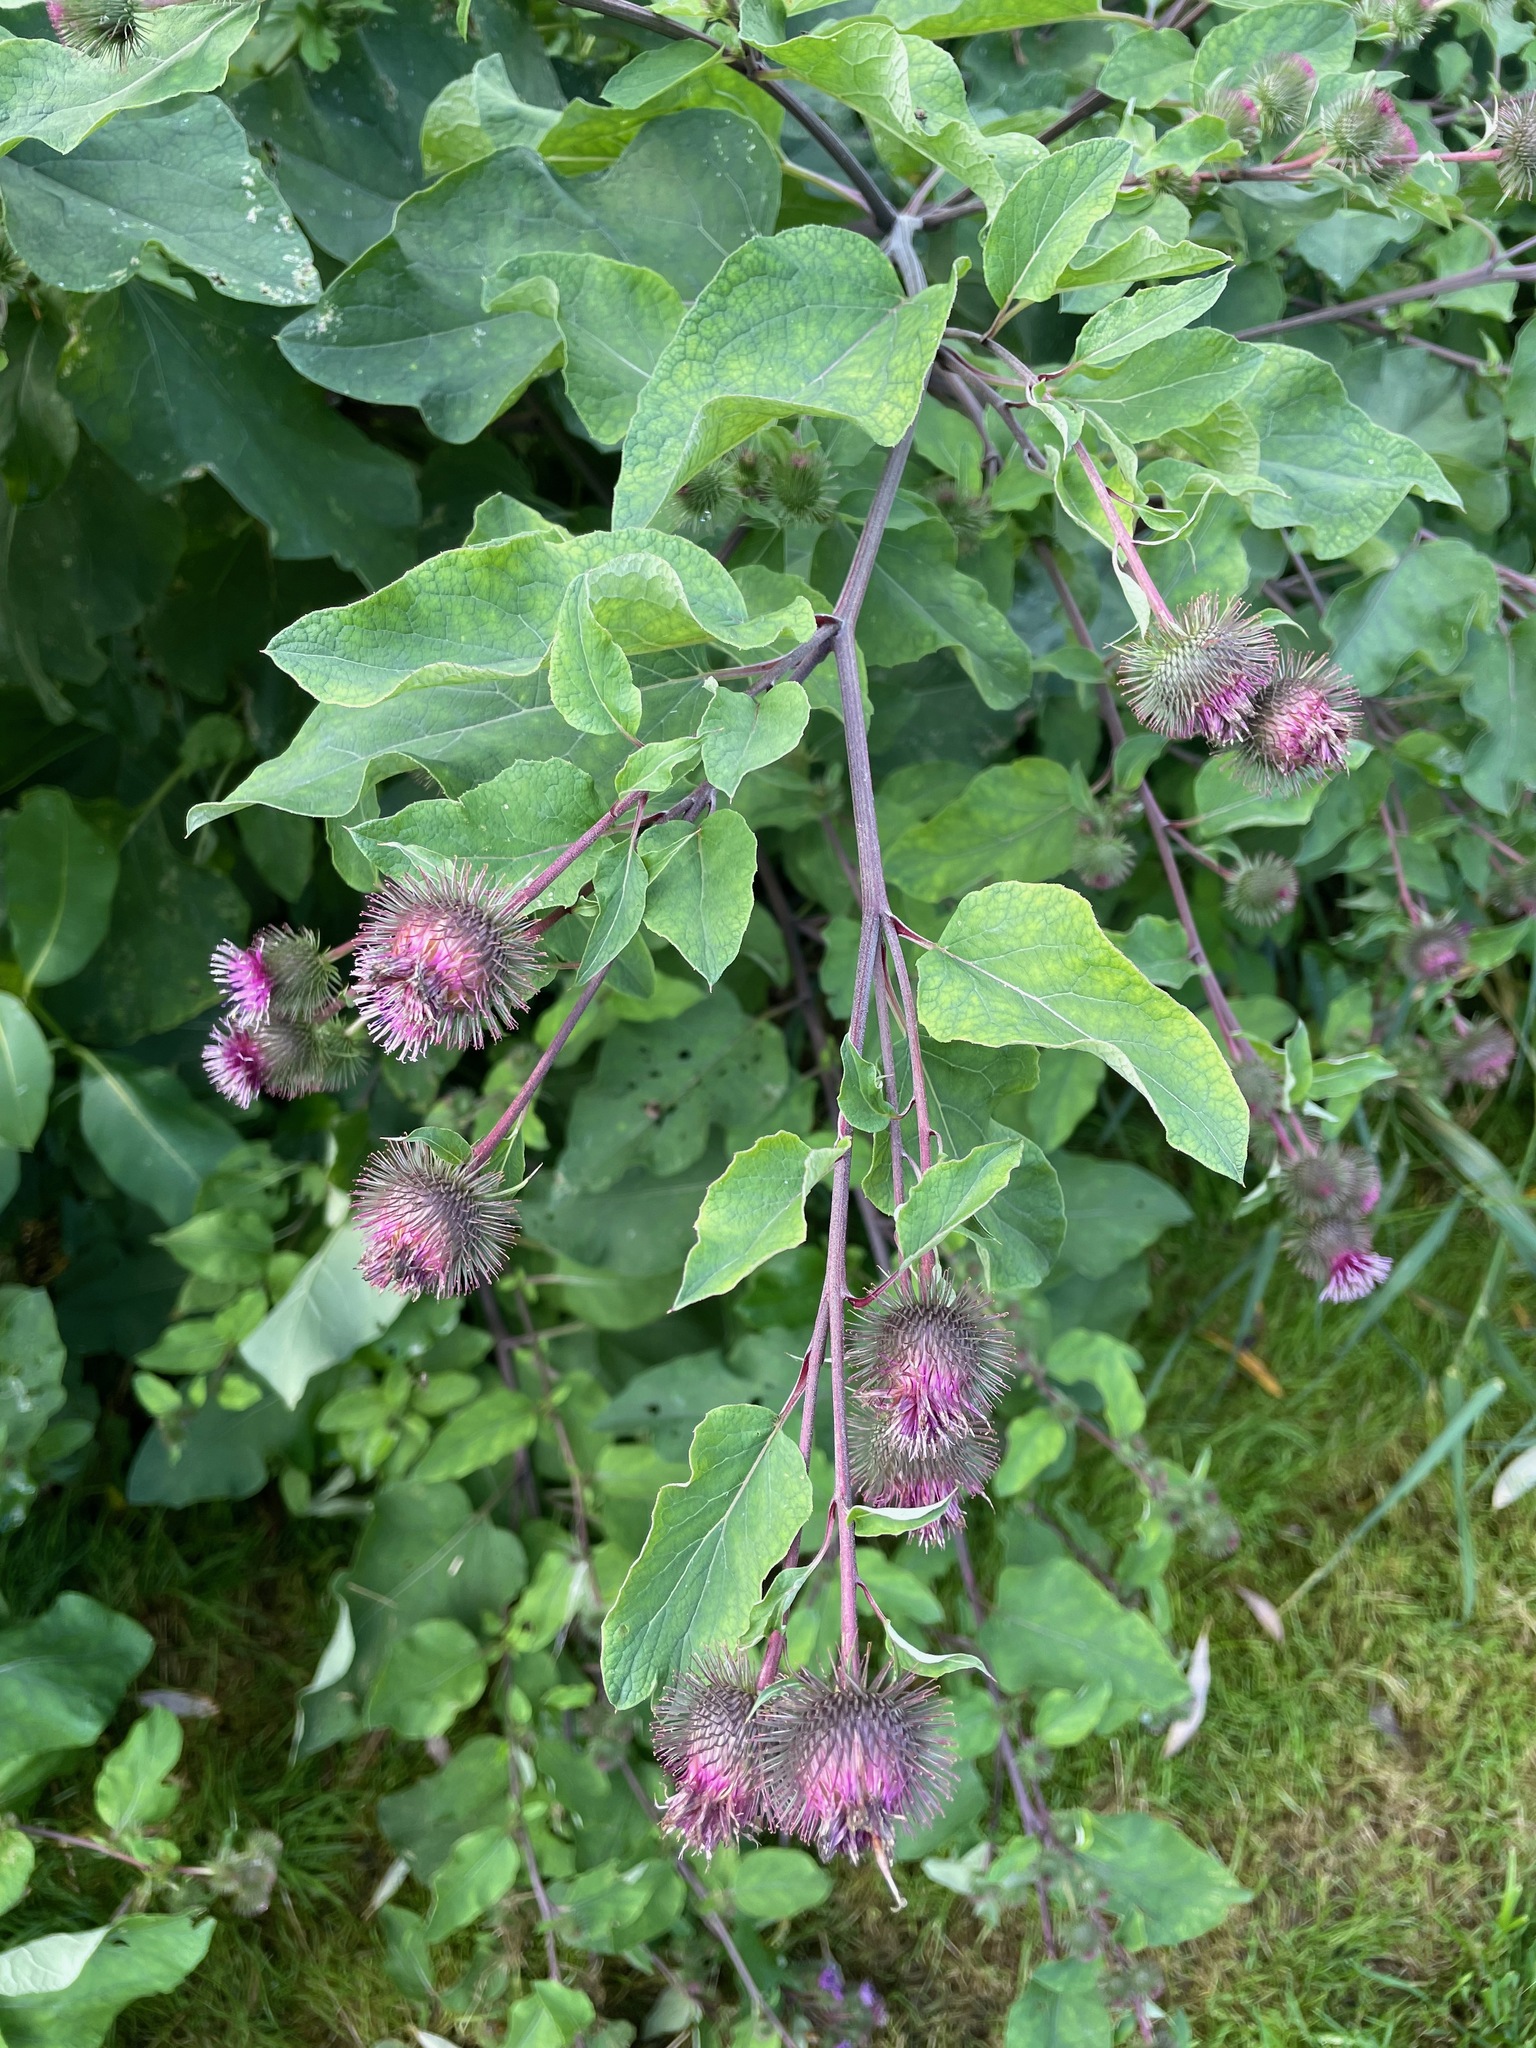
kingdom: Plantae
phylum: Tracheophyta
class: Magnoliopsida
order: Asterales
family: Asteraceae
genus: Arctium
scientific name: Arctium lappa
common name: Greater burdock
